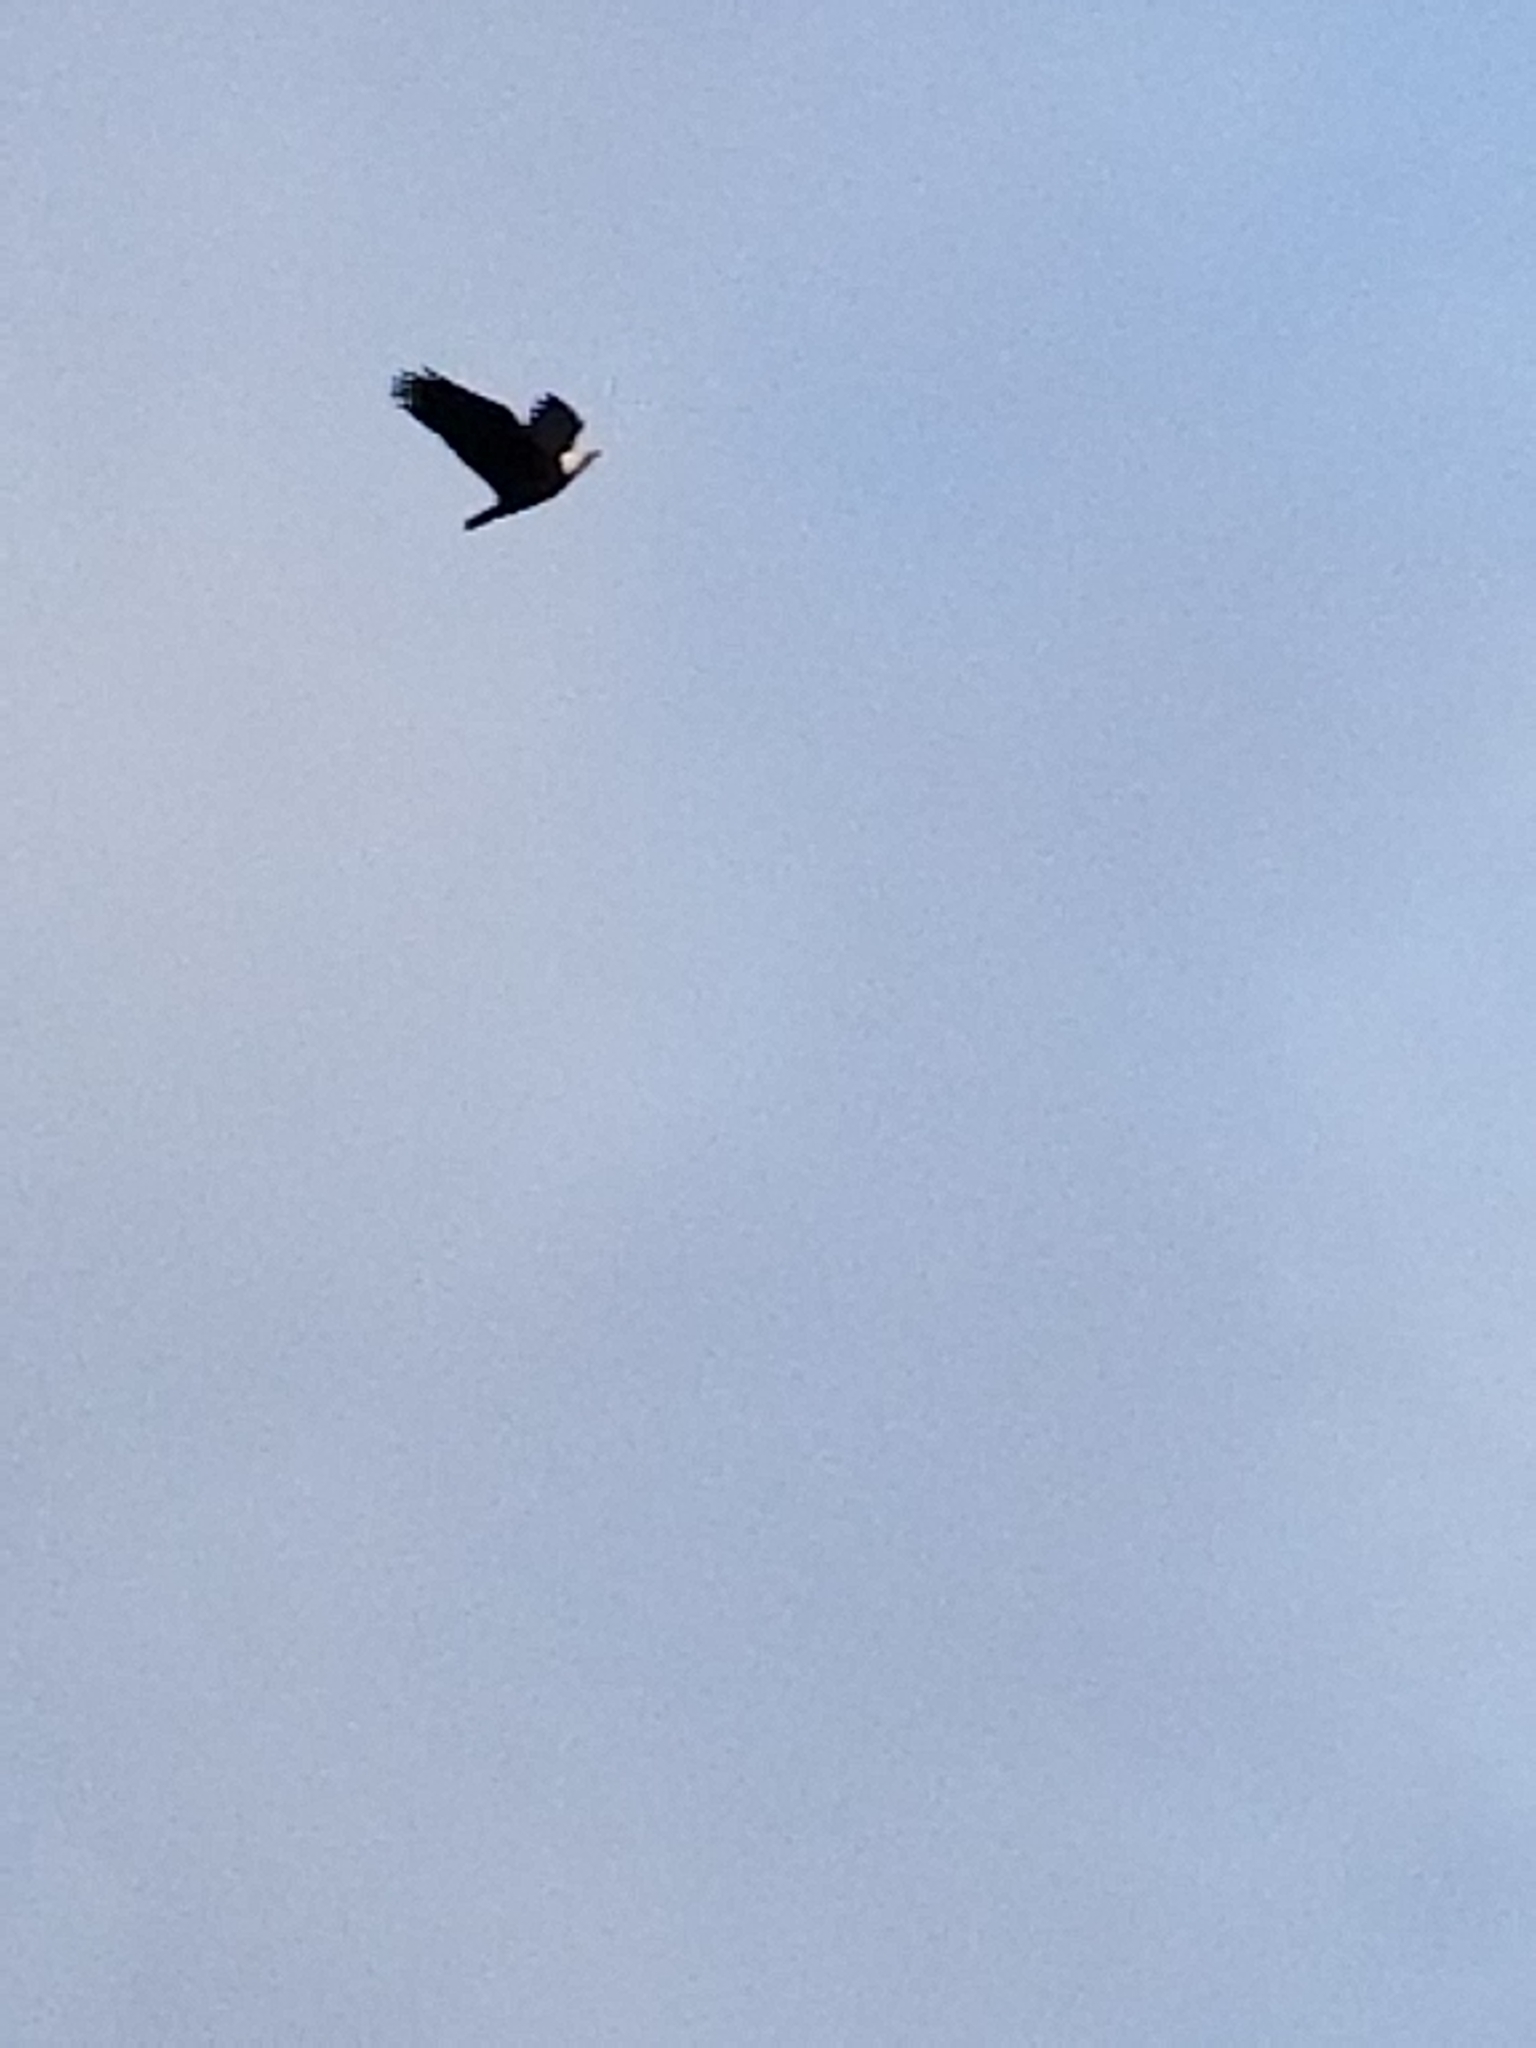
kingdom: Animalia
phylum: Chordata
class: Aves
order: Accipitriformes
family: Accipitridae
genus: Haliaeetus
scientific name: Haliaeetus leucocephalus
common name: Bald eagle
